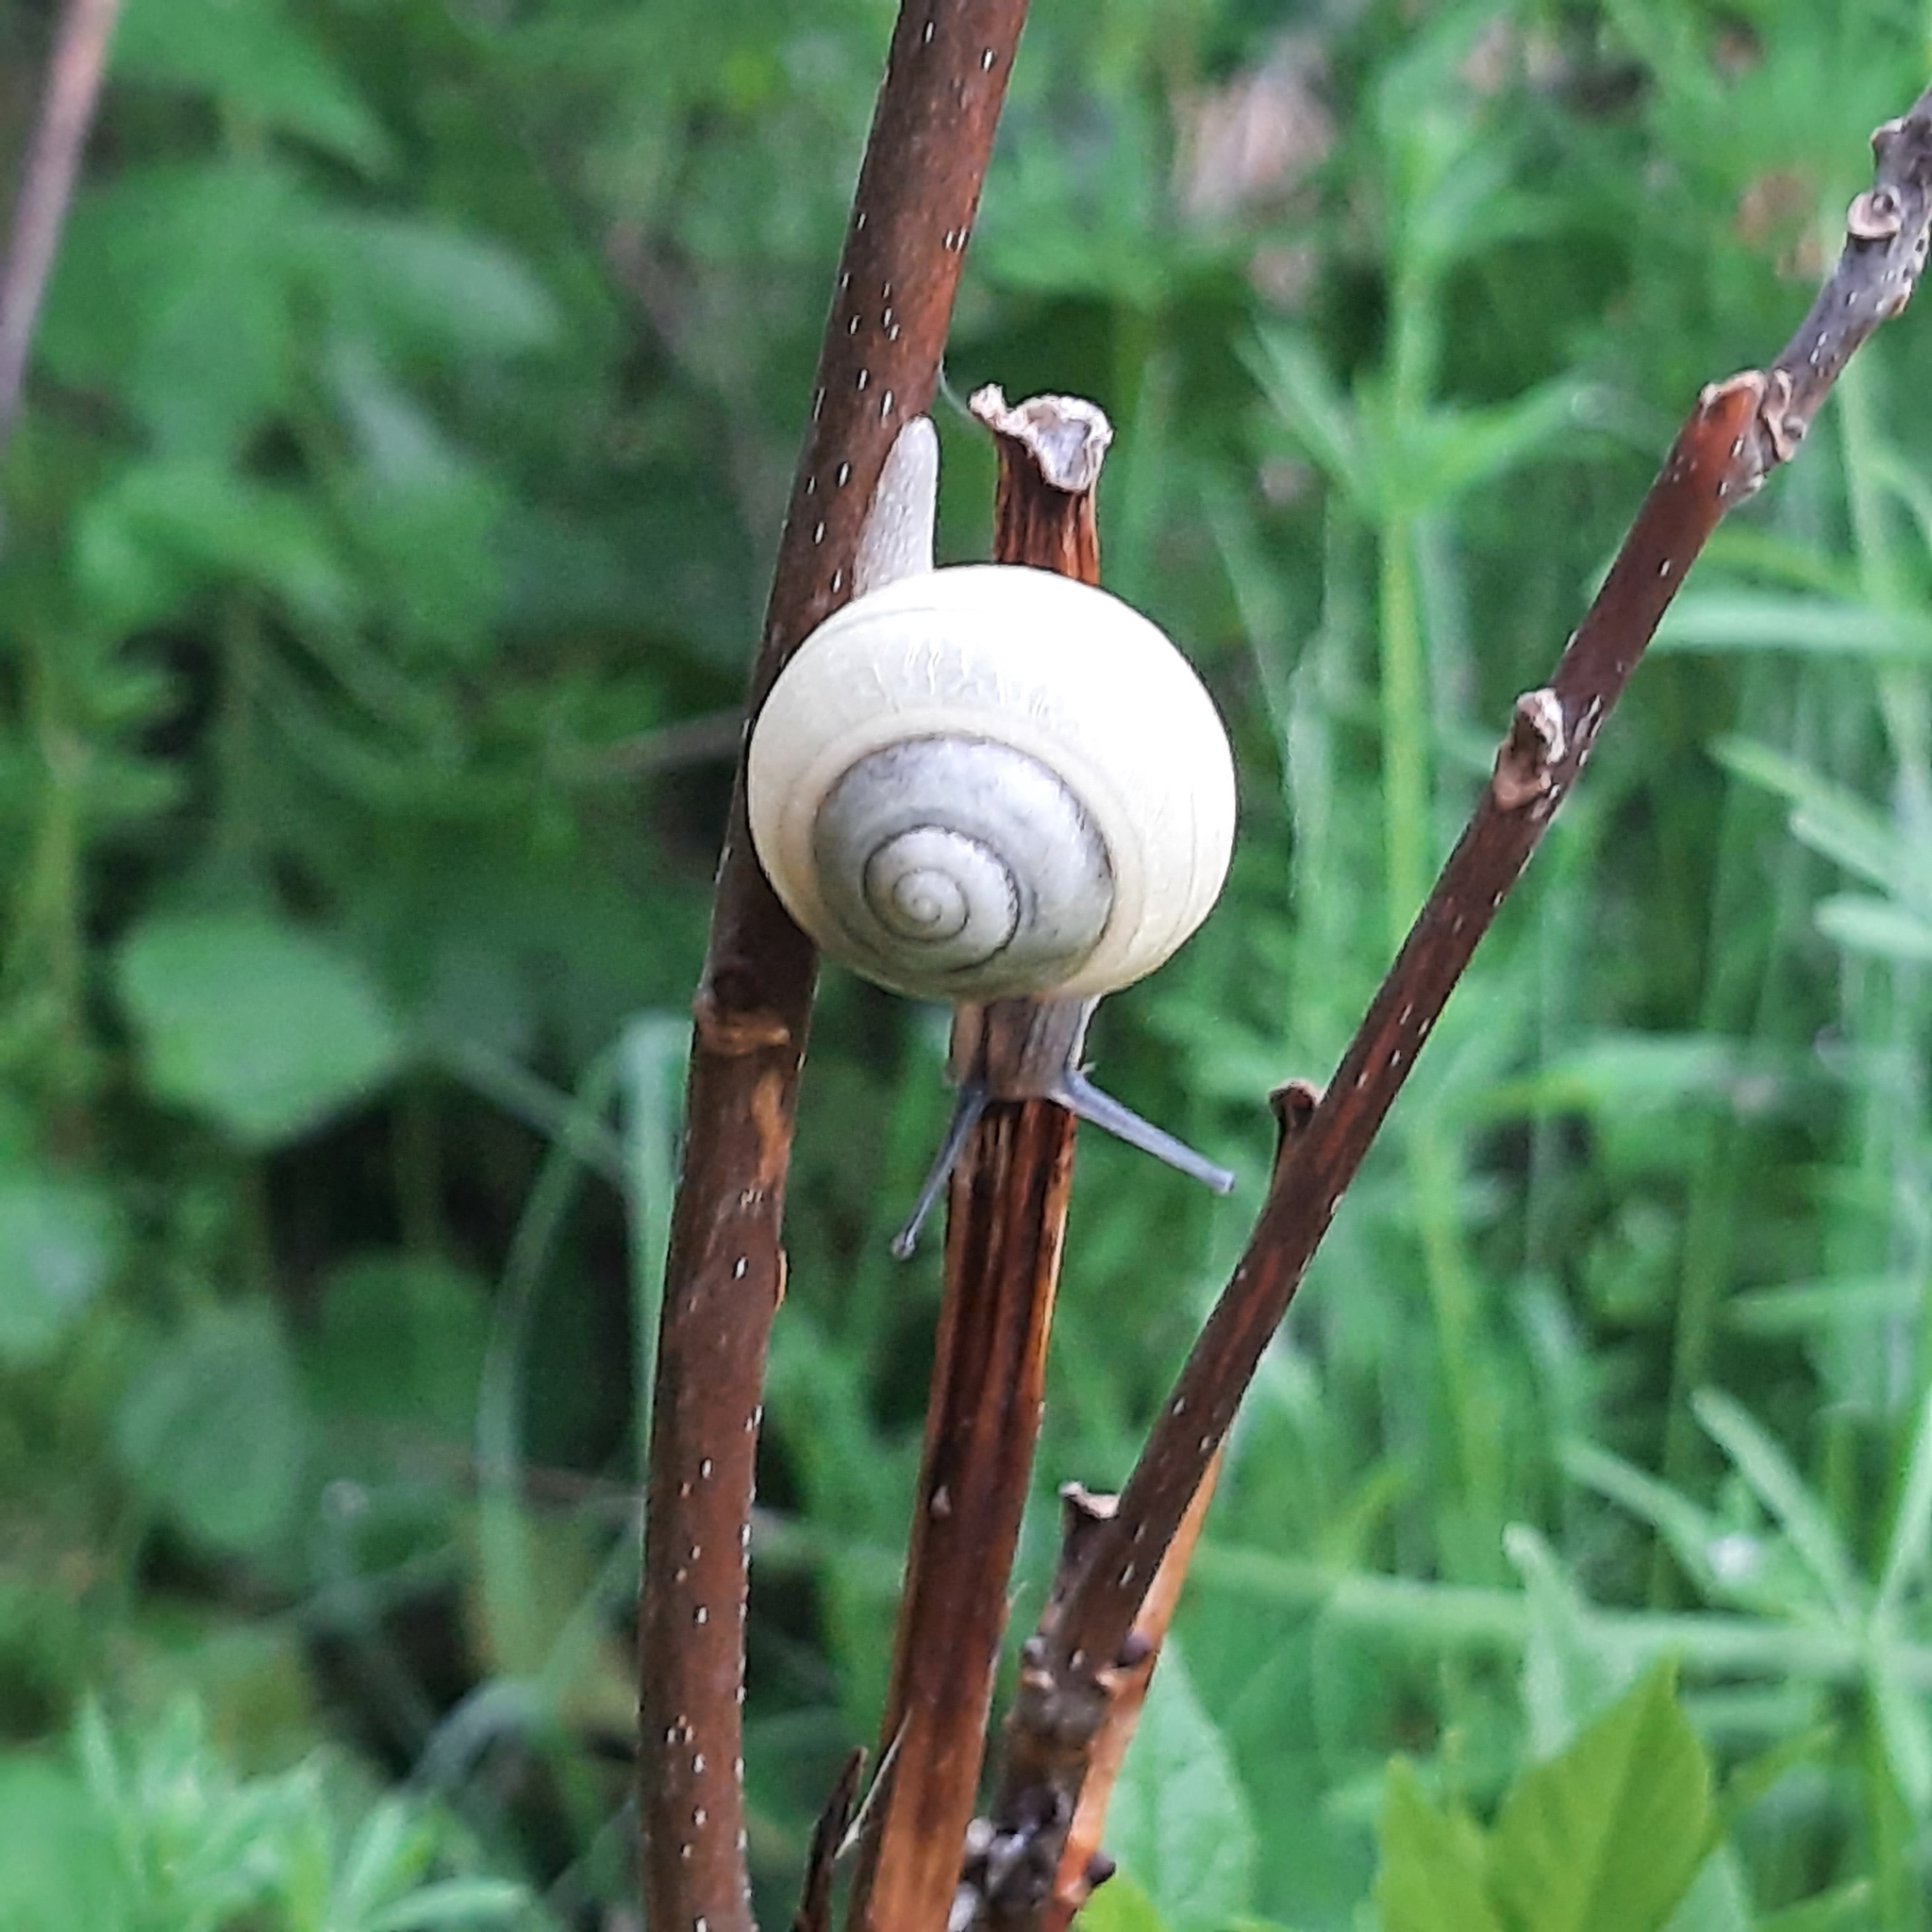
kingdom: Animalia
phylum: Mollusca
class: Gastropoda
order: Stylommatophora
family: Camaenidae
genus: Fruticicola
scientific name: Fruticicola fruticum
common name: Bush snail
